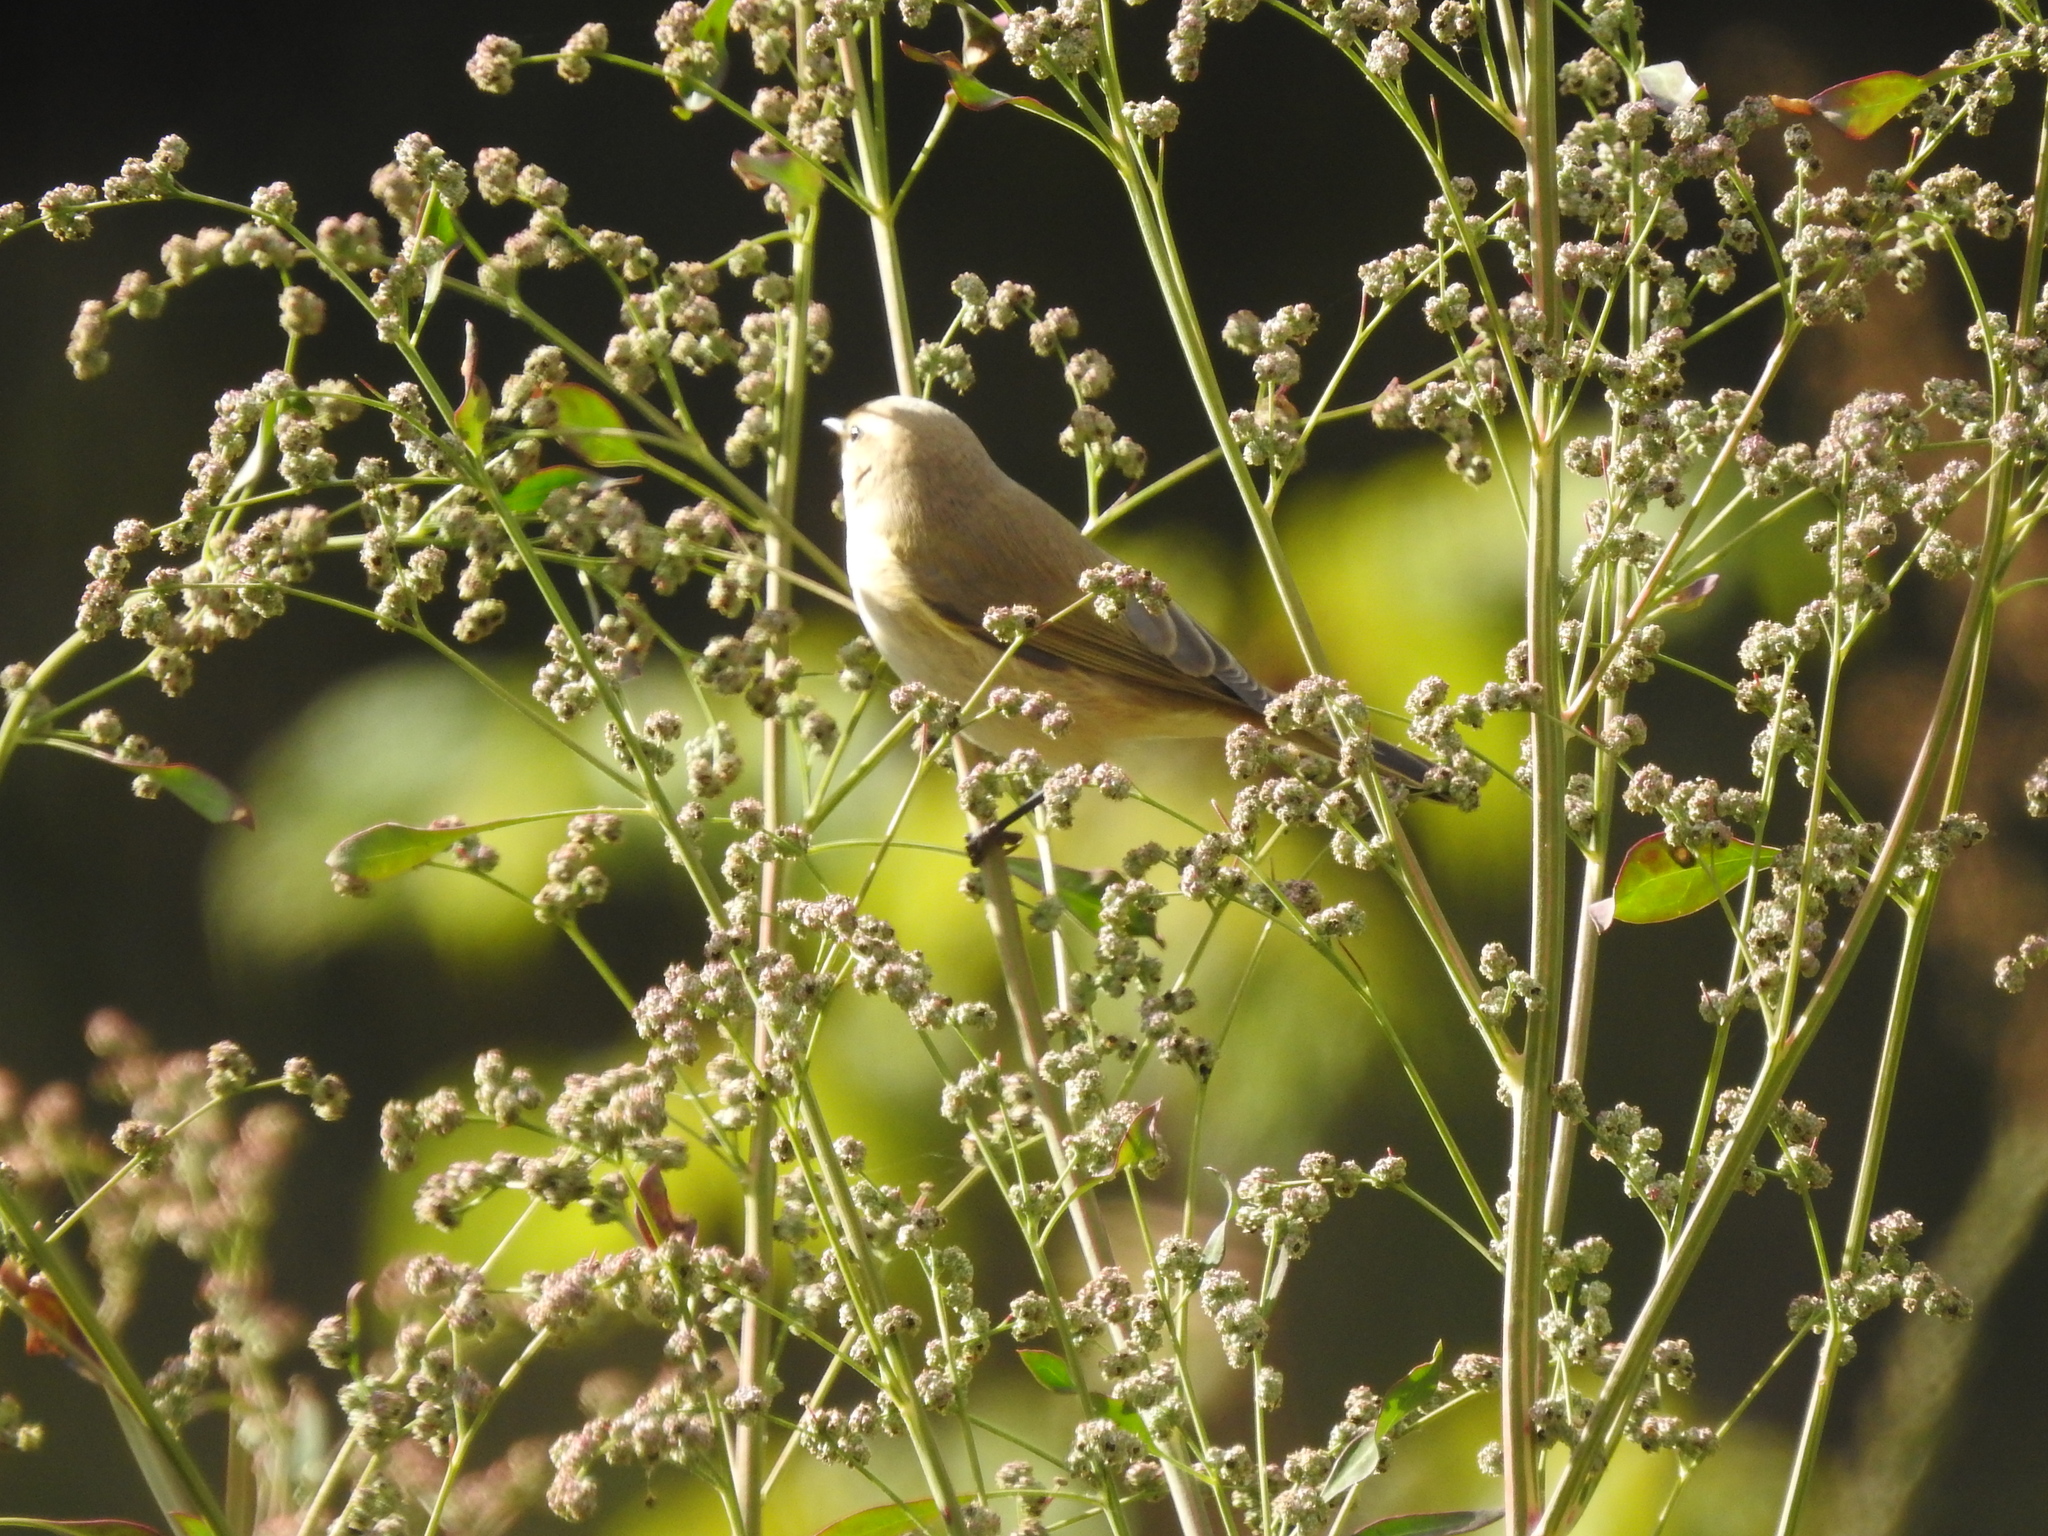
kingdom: Animalia
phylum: Chordata
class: Aves
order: Passeriformes
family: Phylloscopidae
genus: Phylloscopus
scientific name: Phylloscopus collybita
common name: Common chiffchaff
